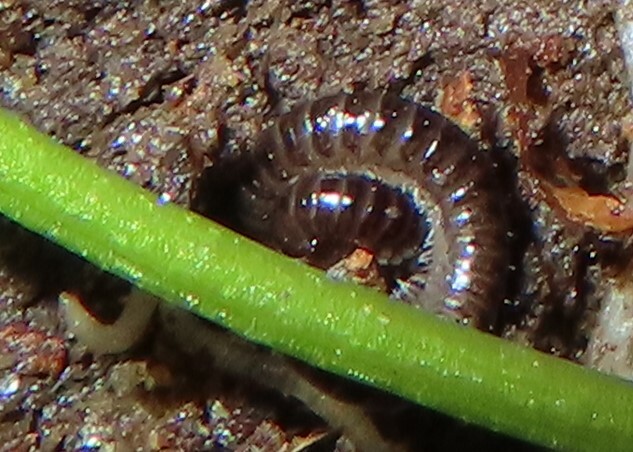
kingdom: Animalia
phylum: Arthropoda
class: Diplopoda
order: Julida
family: Julidae
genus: Ophyiulus
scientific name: Ophyiulus pilosus
